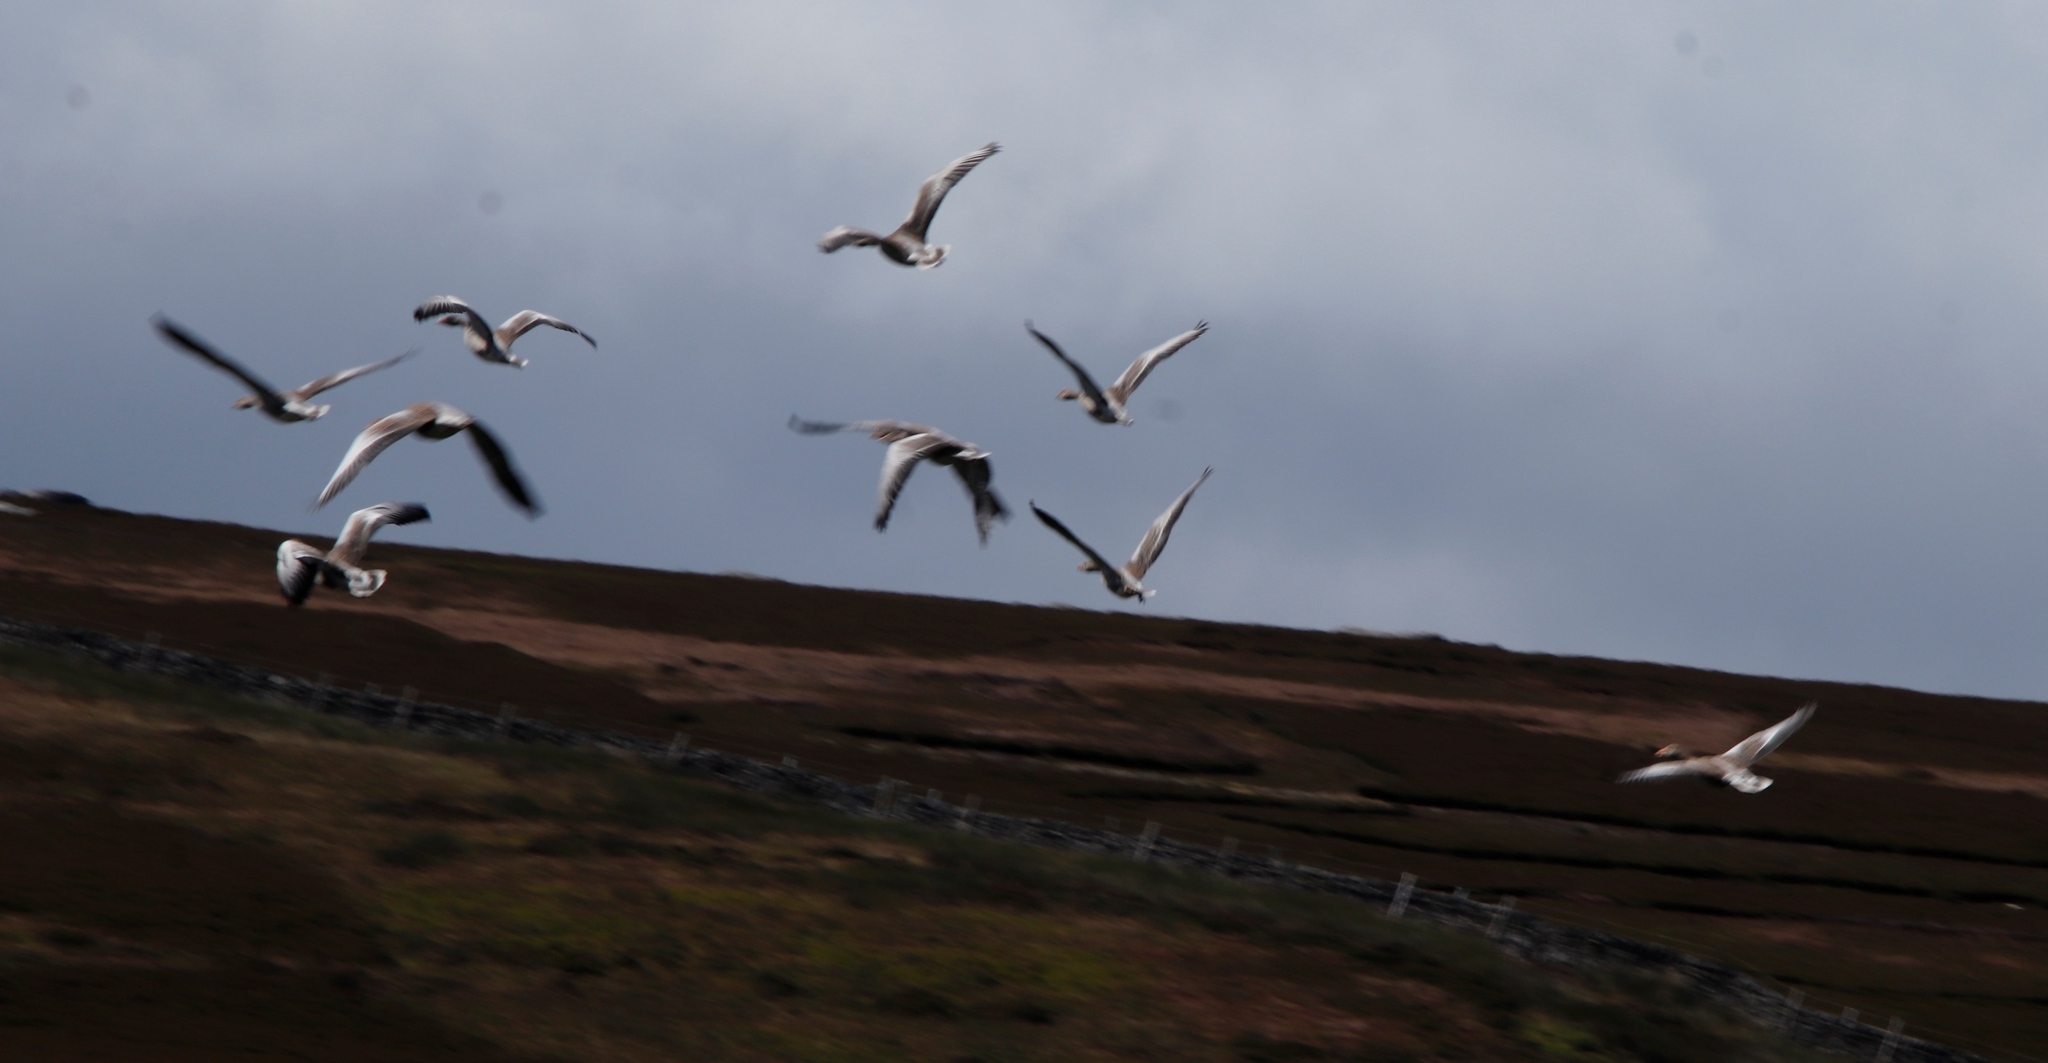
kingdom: Animalia
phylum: Chordata
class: Aves
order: Anseriformes
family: Anatidae
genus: Anser
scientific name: Anser anser
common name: Greylag goose
